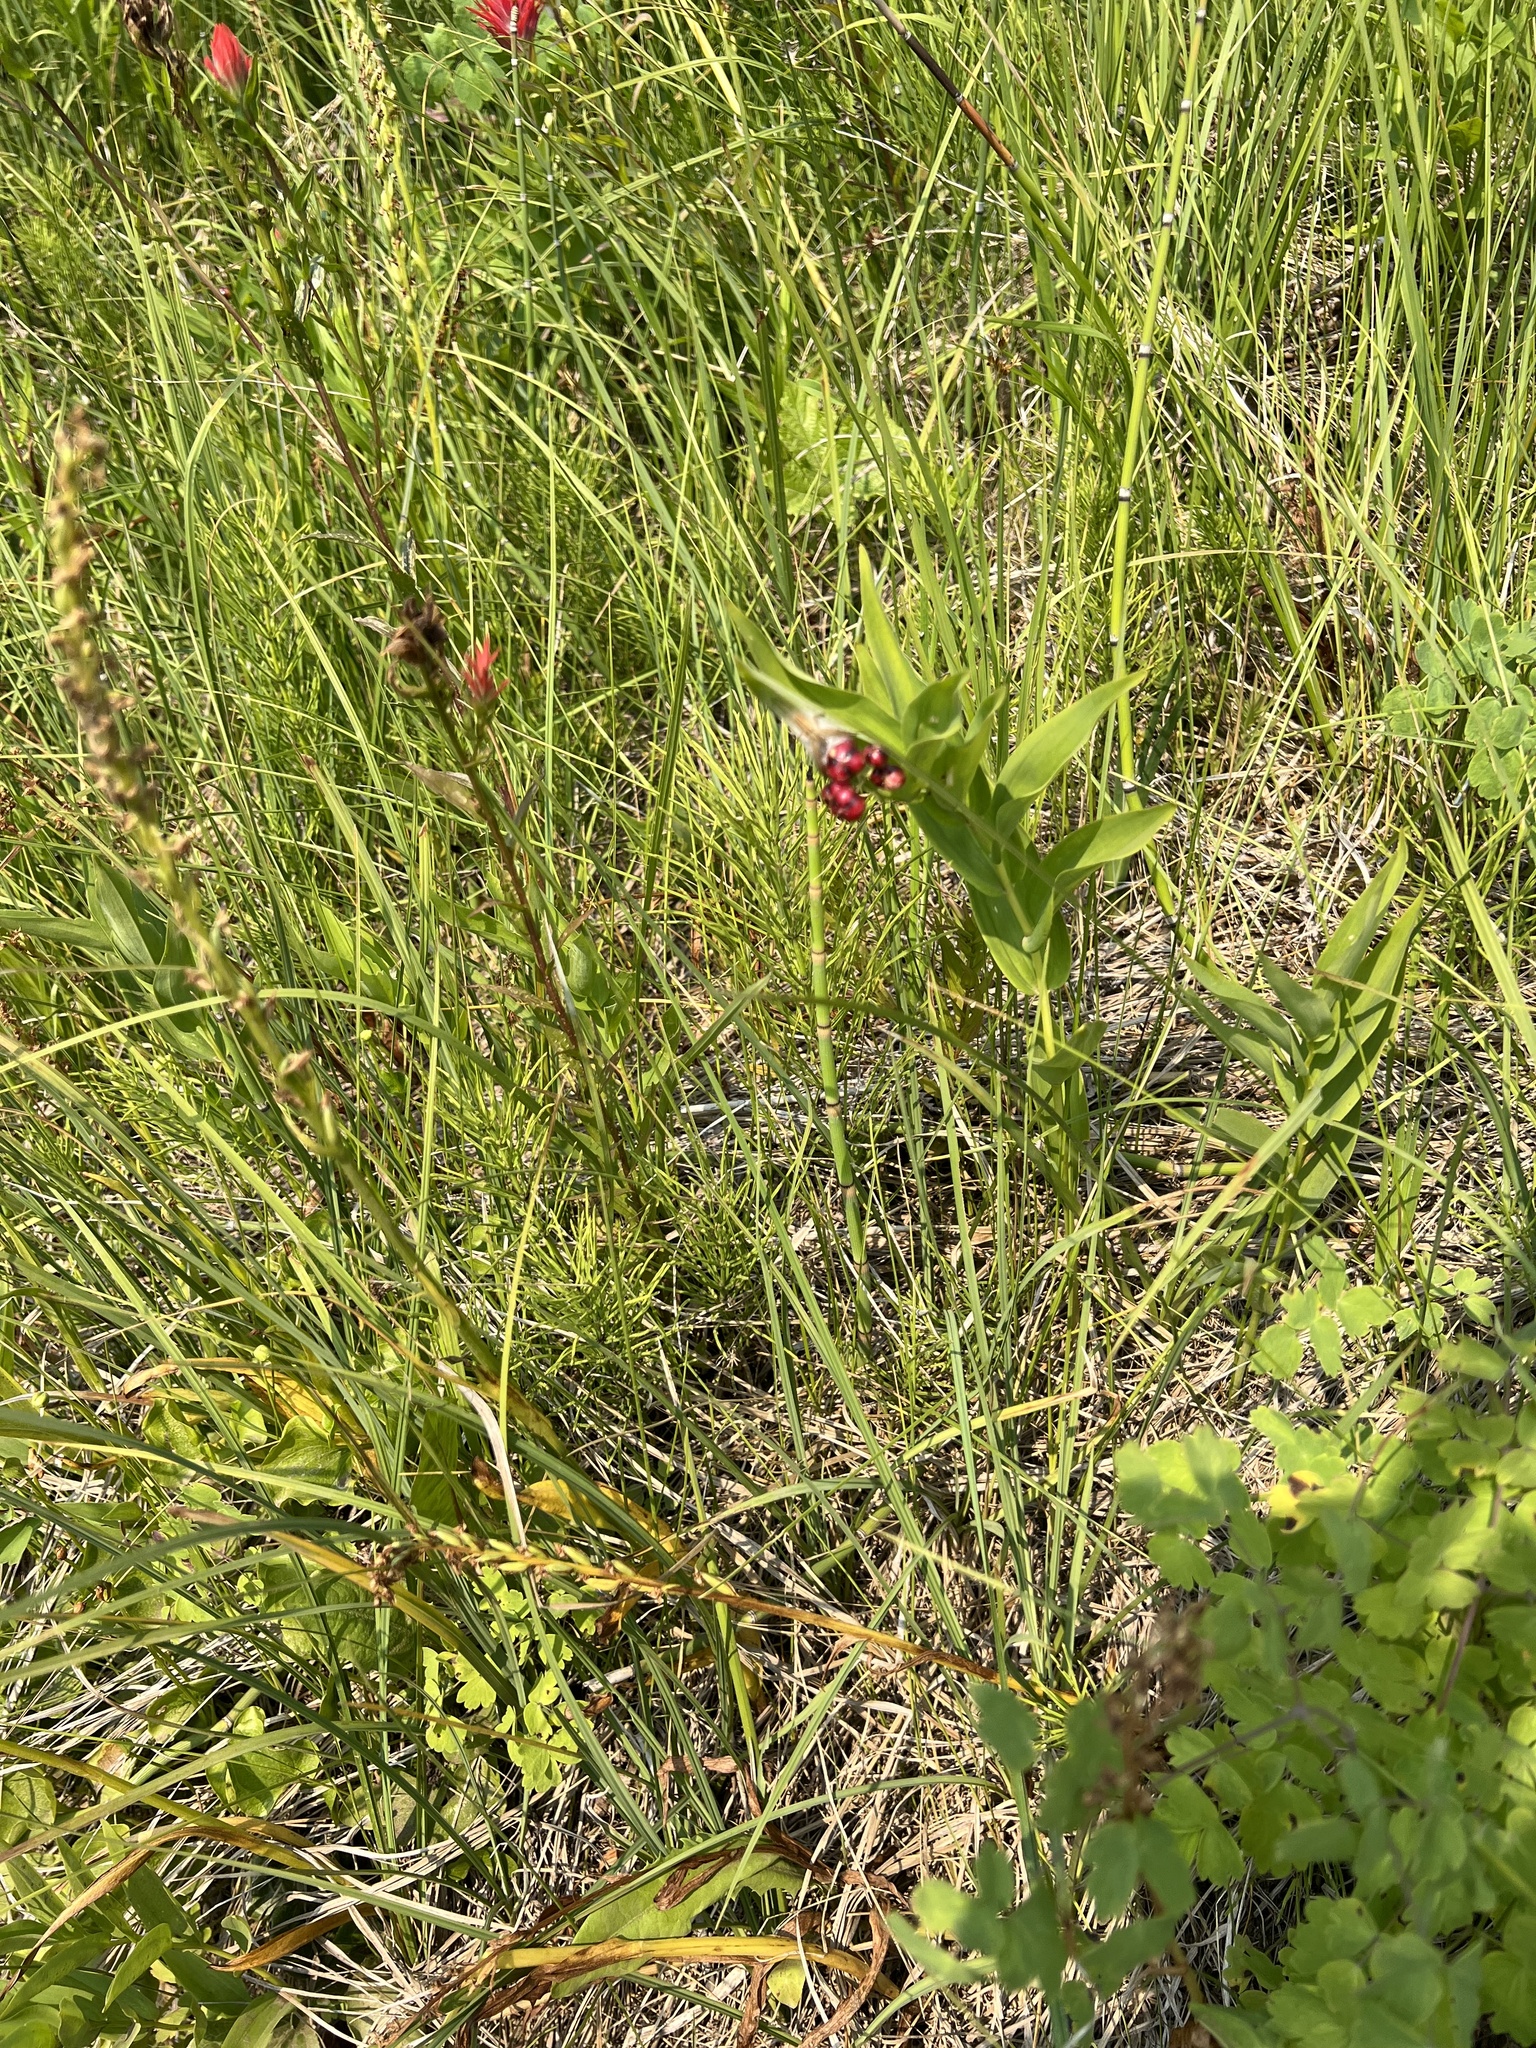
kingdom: Plantae
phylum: Tracheophyta
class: Liliopsida
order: Asparagales
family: Asparagaceae
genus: Maianthemum
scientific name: Maianthemum stellatum
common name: Little false solomon's seal
